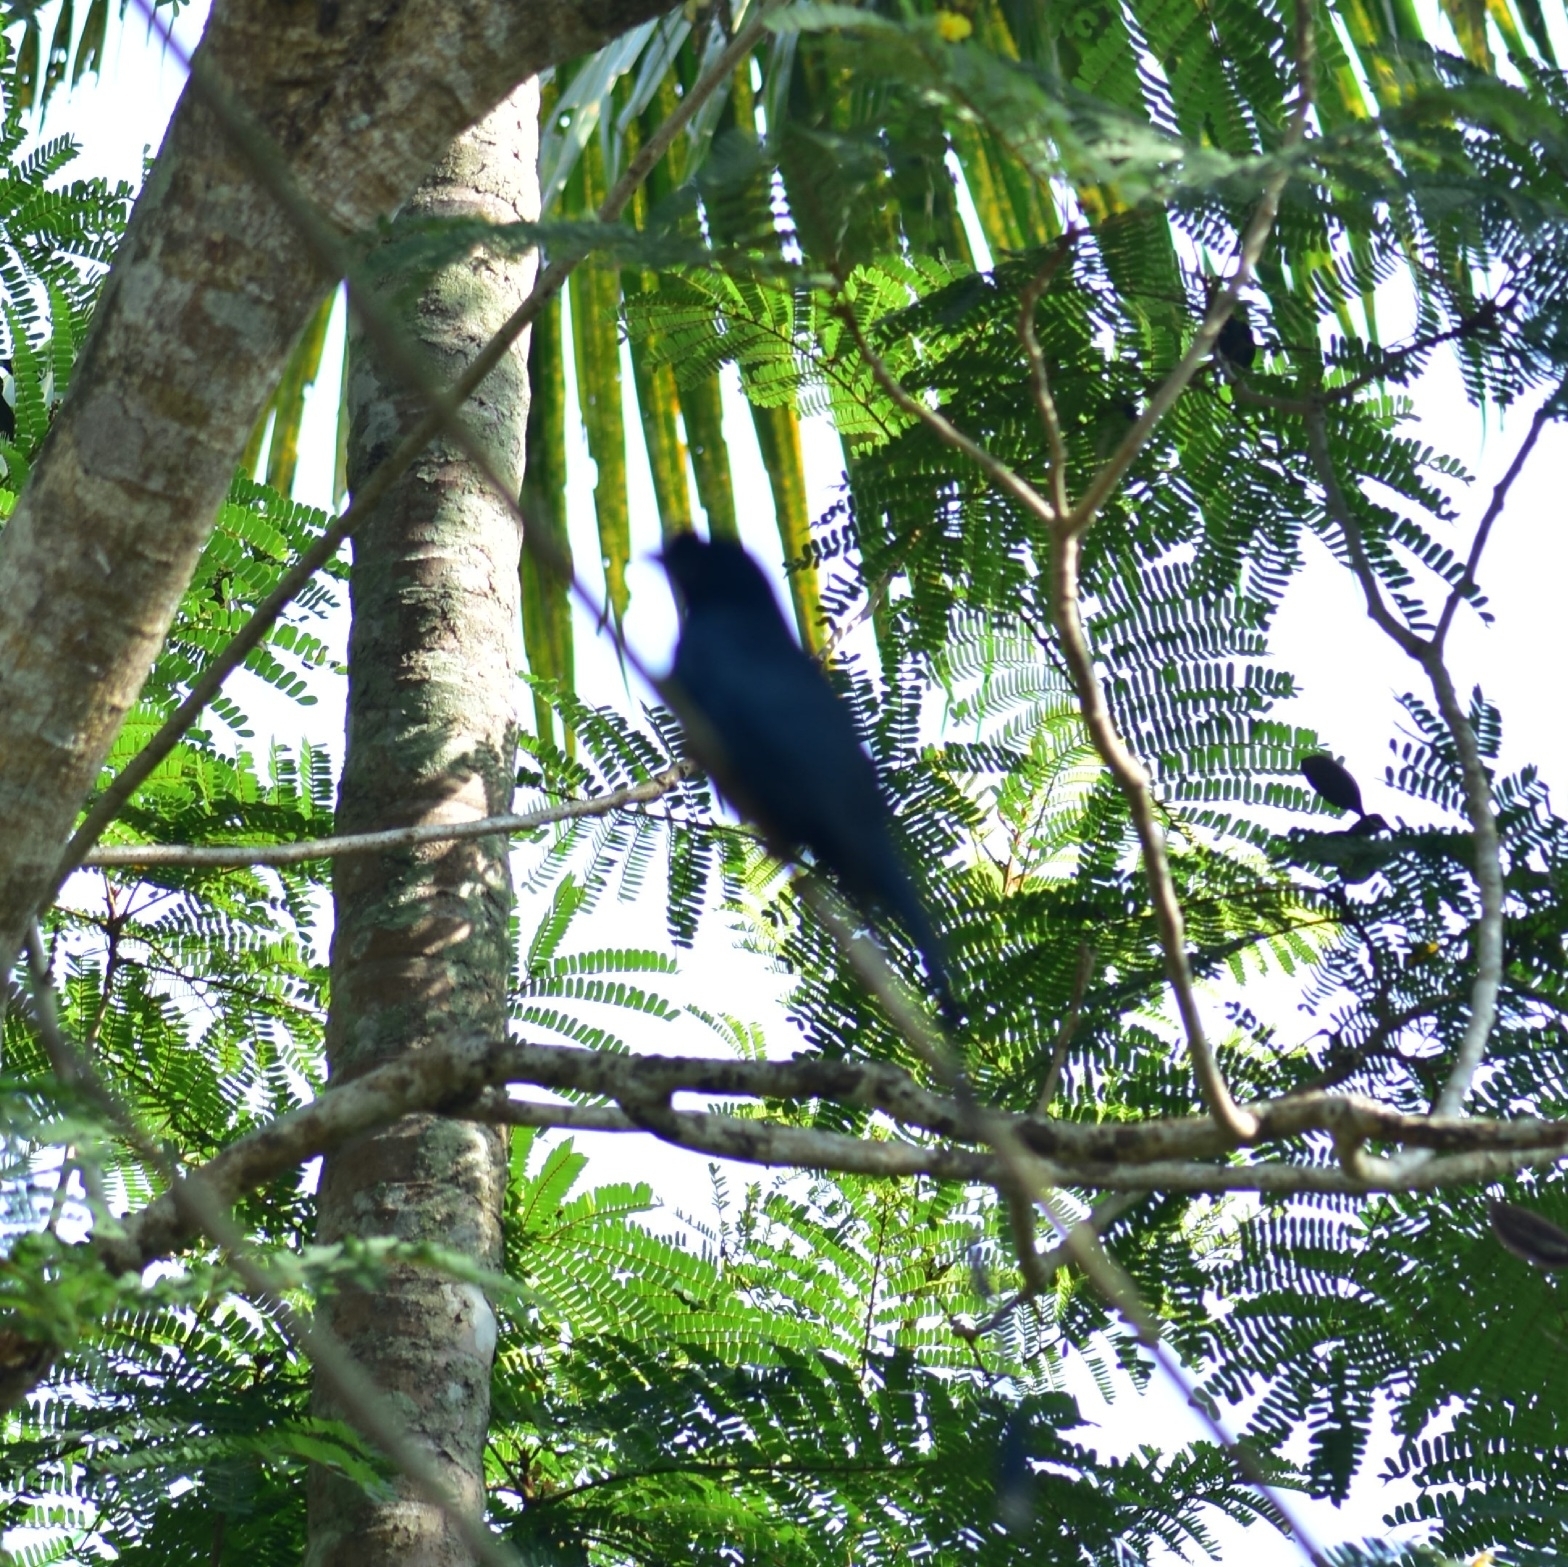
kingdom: Animalia
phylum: Chordata
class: Aves
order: Passeriformes
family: Dicruridae
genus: Dicrurus
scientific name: Dicrurus paradiseus
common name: Greater racket-tailed drongo
